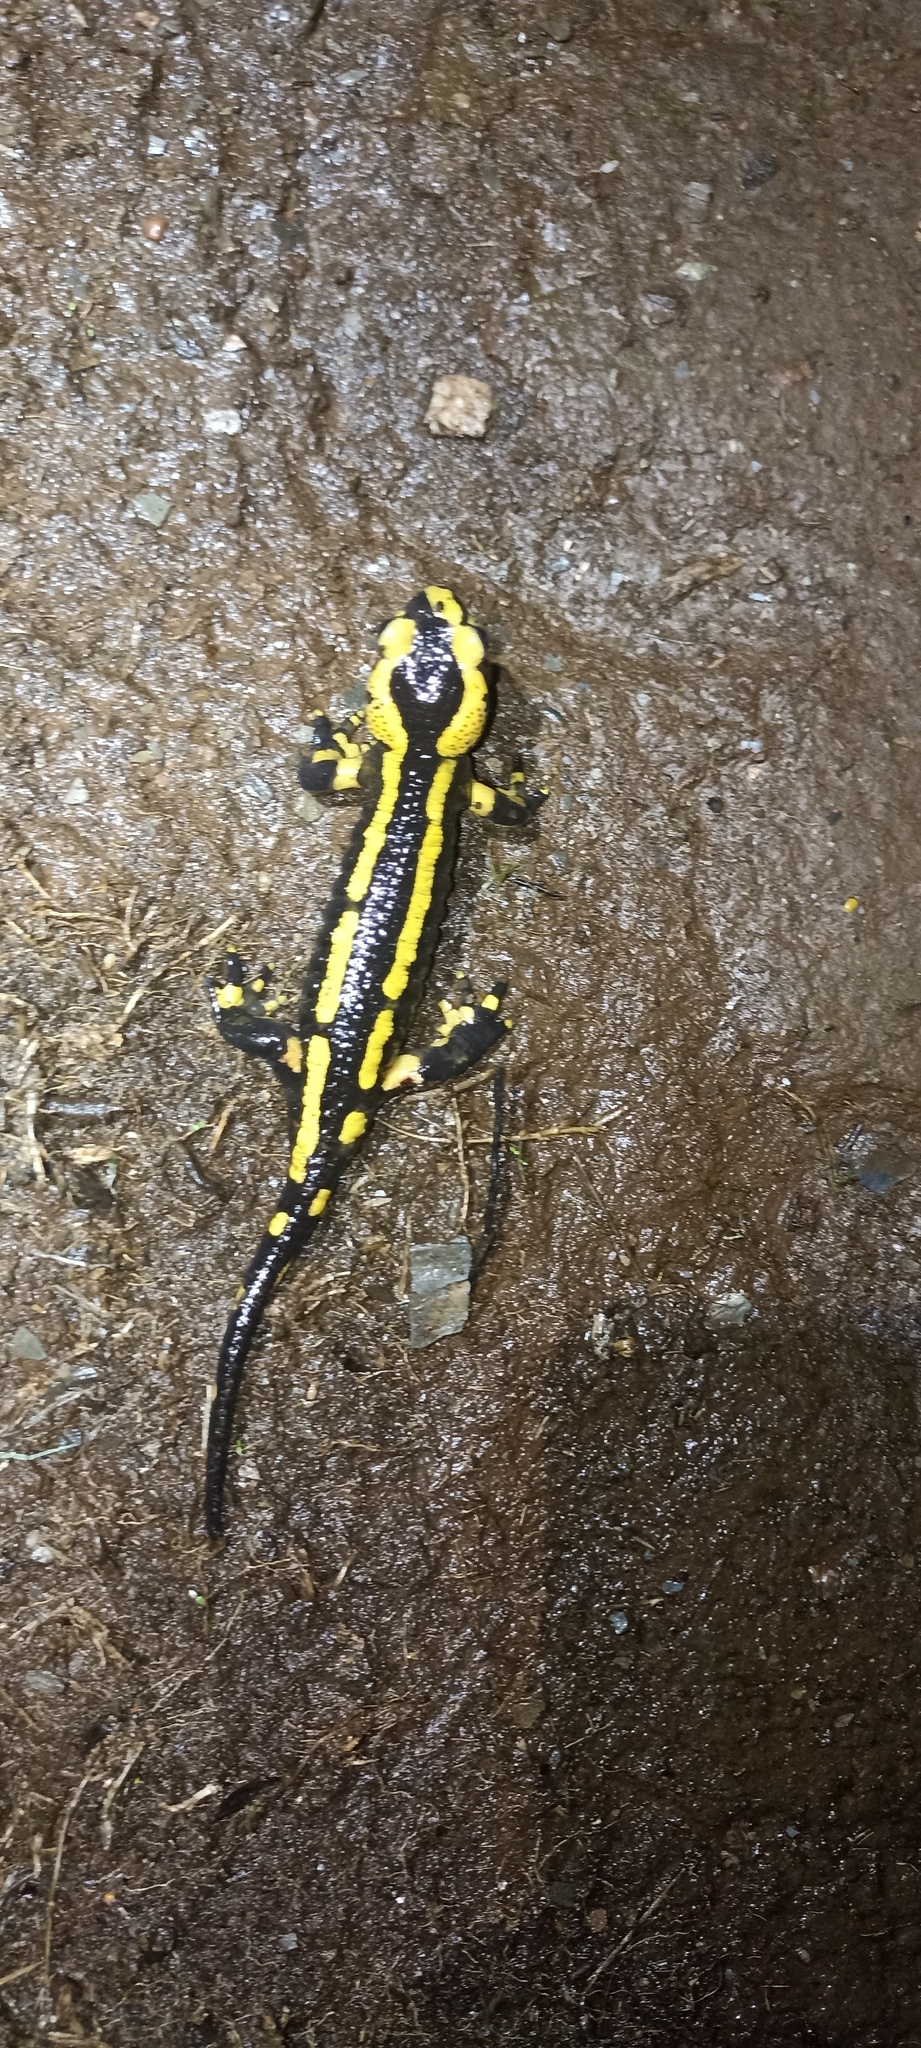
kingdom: Animalia
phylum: Chordata
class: Amphibia
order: Caudata
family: Salamandridae
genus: Salamandra
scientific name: Salamandra salamandra
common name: Fire salamander
